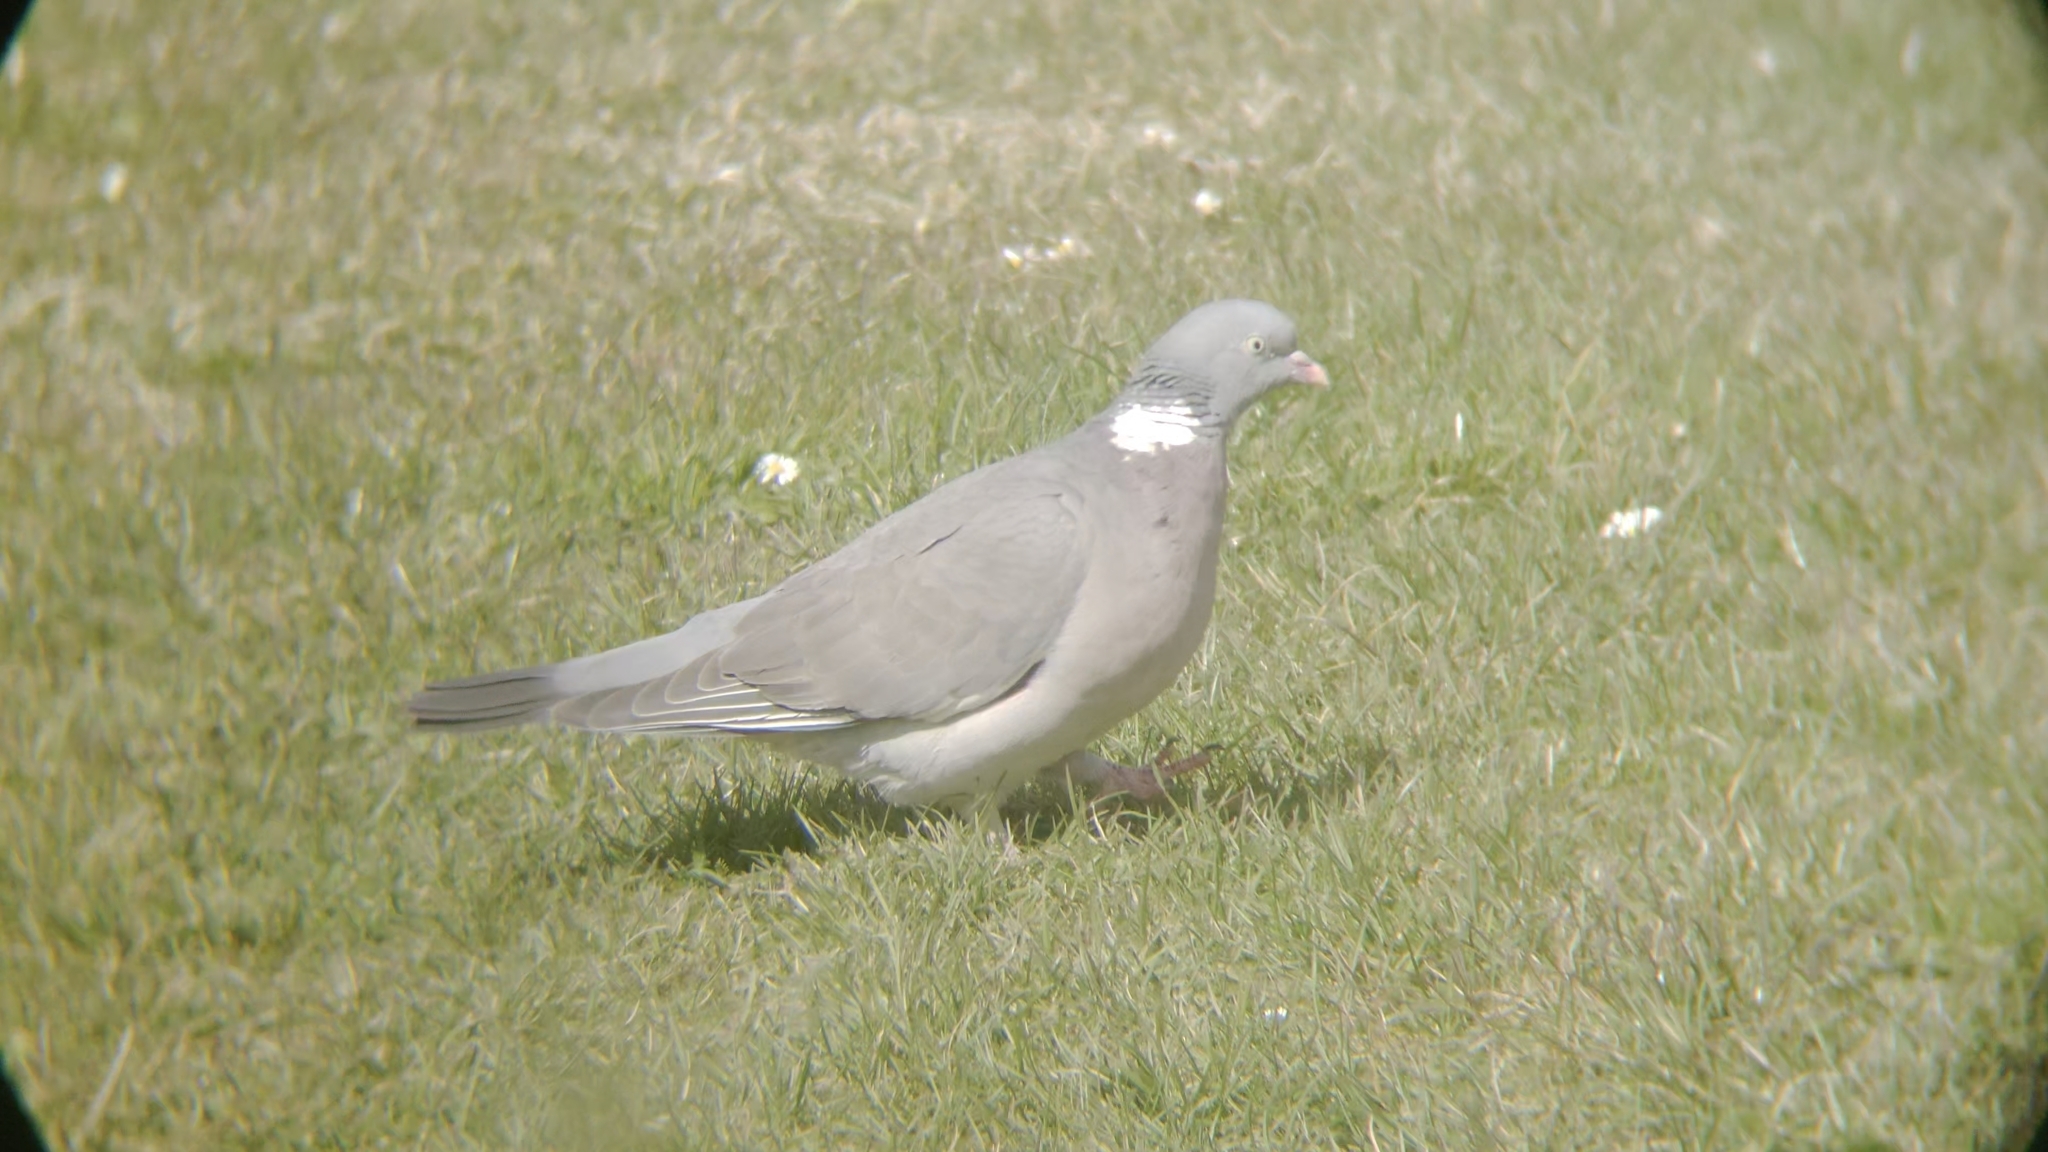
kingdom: Animalia
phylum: Chordata
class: Aves
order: Columbiformes
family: Columbidae
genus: Columba
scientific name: Columba palumbus
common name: Common wood pigeon
